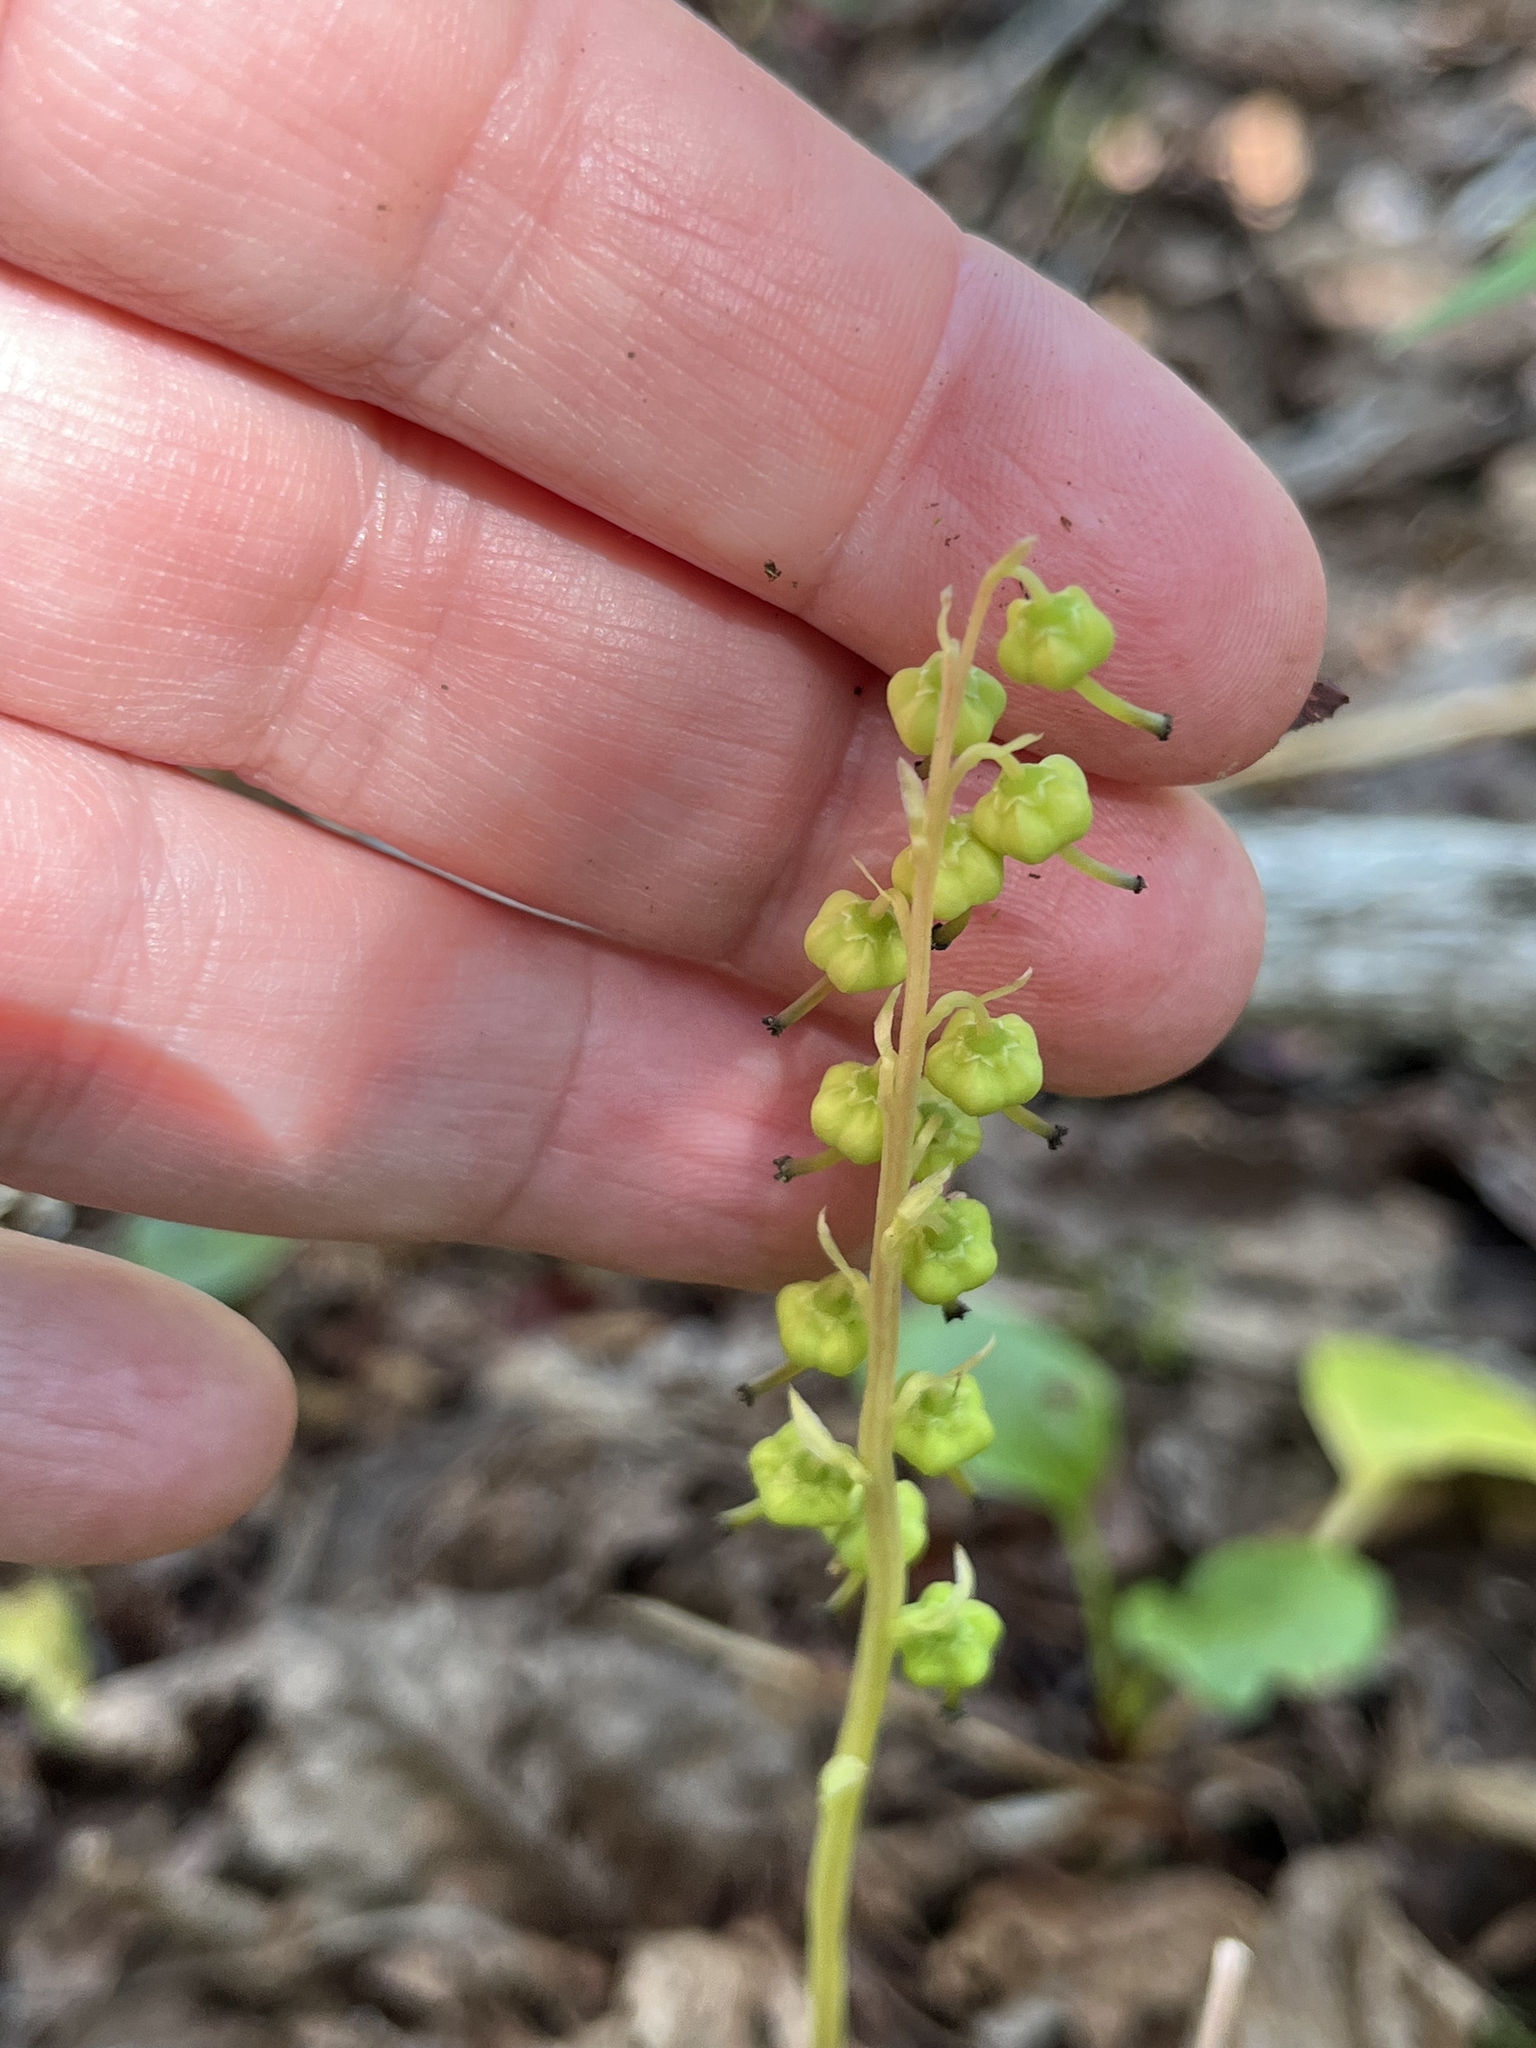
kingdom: Plantae
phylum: Tracheophyta
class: Magnoliopsida
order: Ericales
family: Ericaceae
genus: Orthilia
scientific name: Orthilia secunda
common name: One-sided orthilia
